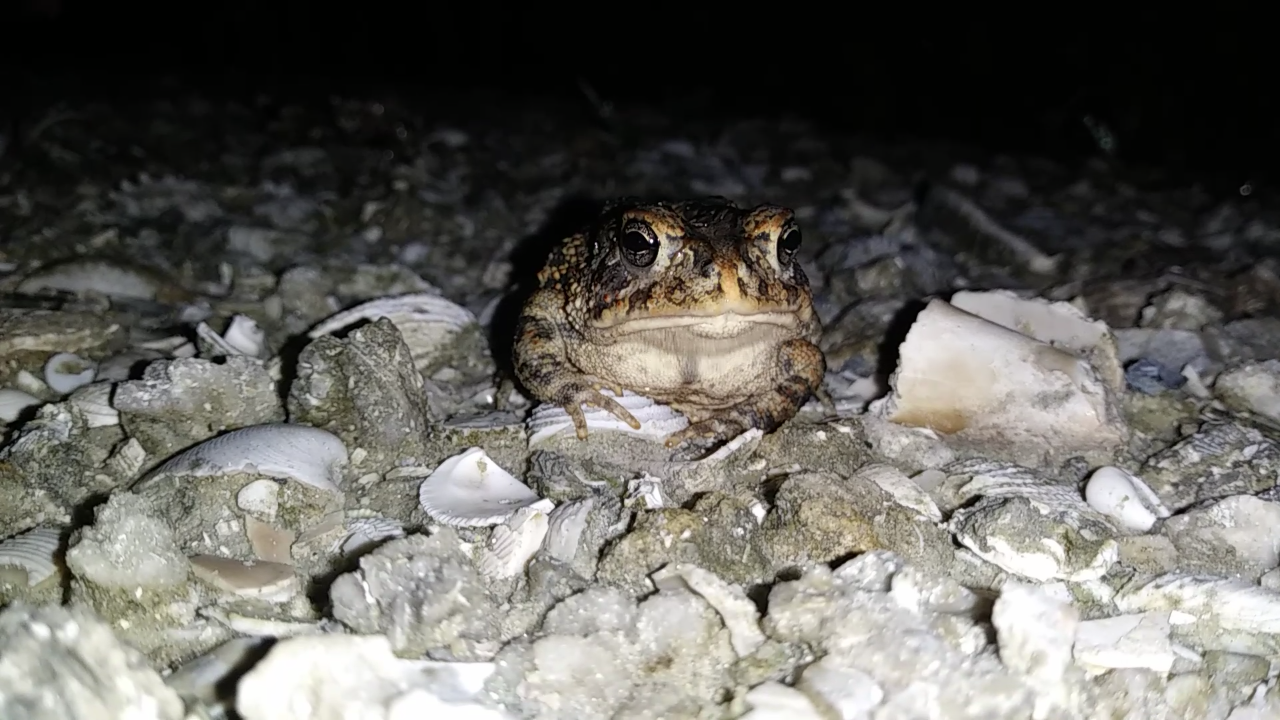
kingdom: Animalia
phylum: Chordata
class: Amphibia
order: Anura
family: Bufonidae
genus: Anaxyrus
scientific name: Anaxyrus terrestris
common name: Southern toad
